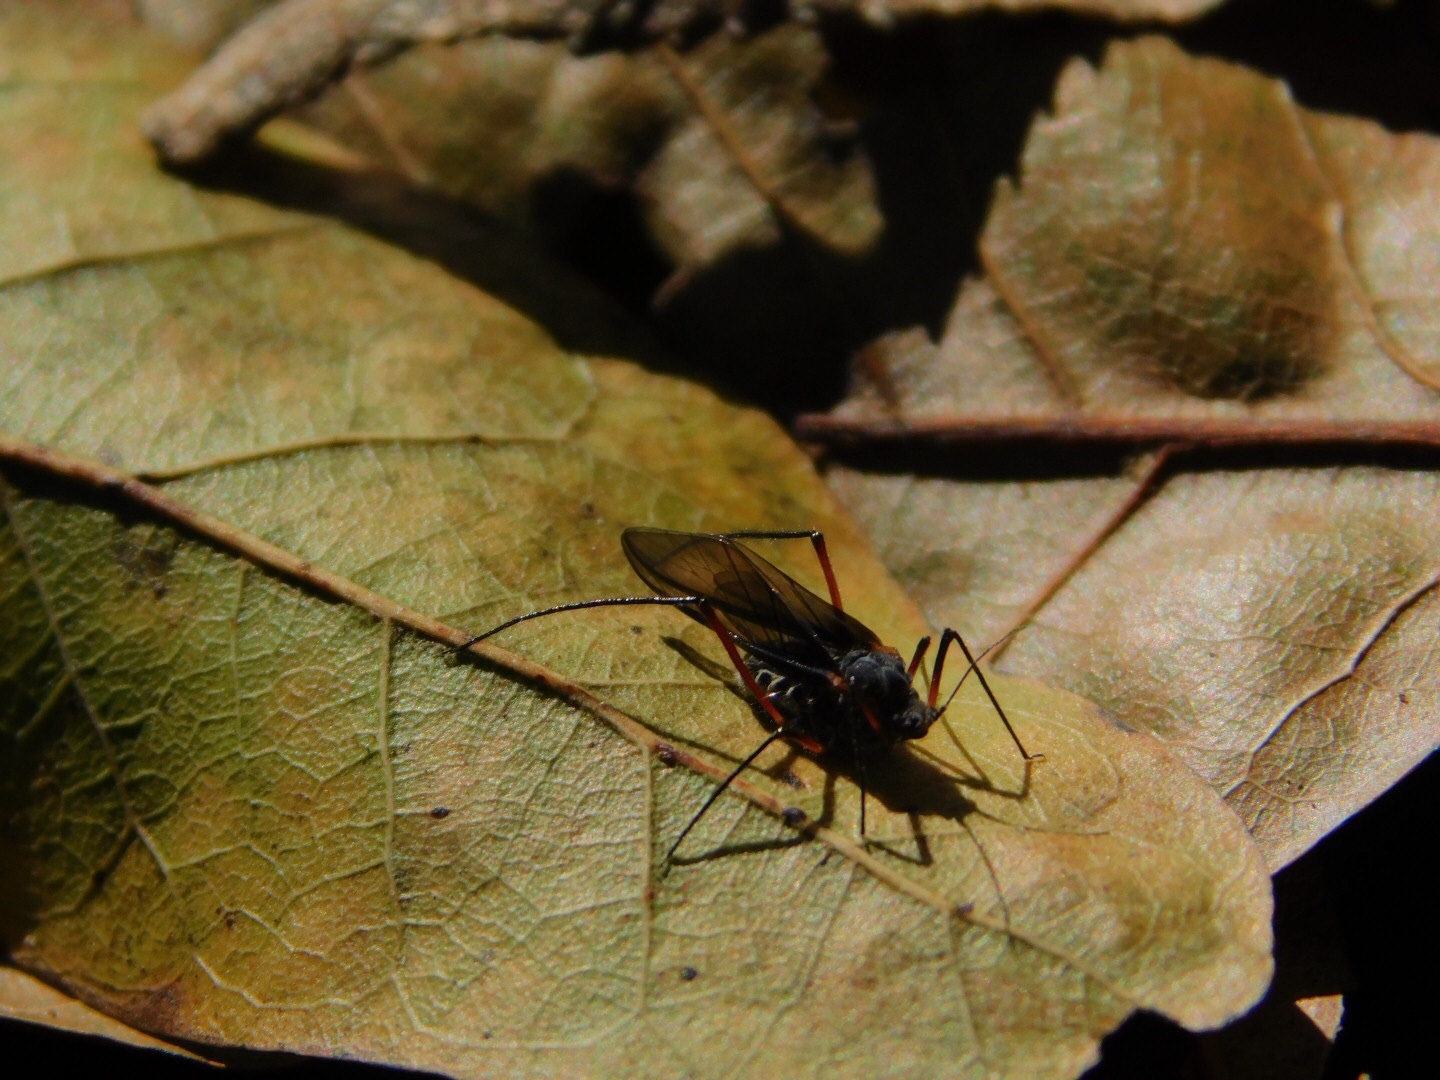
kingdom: Animalia
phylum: Arthropoda
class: Insecta
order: Hemiptera
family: Aphididae
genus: Longistigma
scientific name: Longistigma caryae
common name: Giant bark aphid
